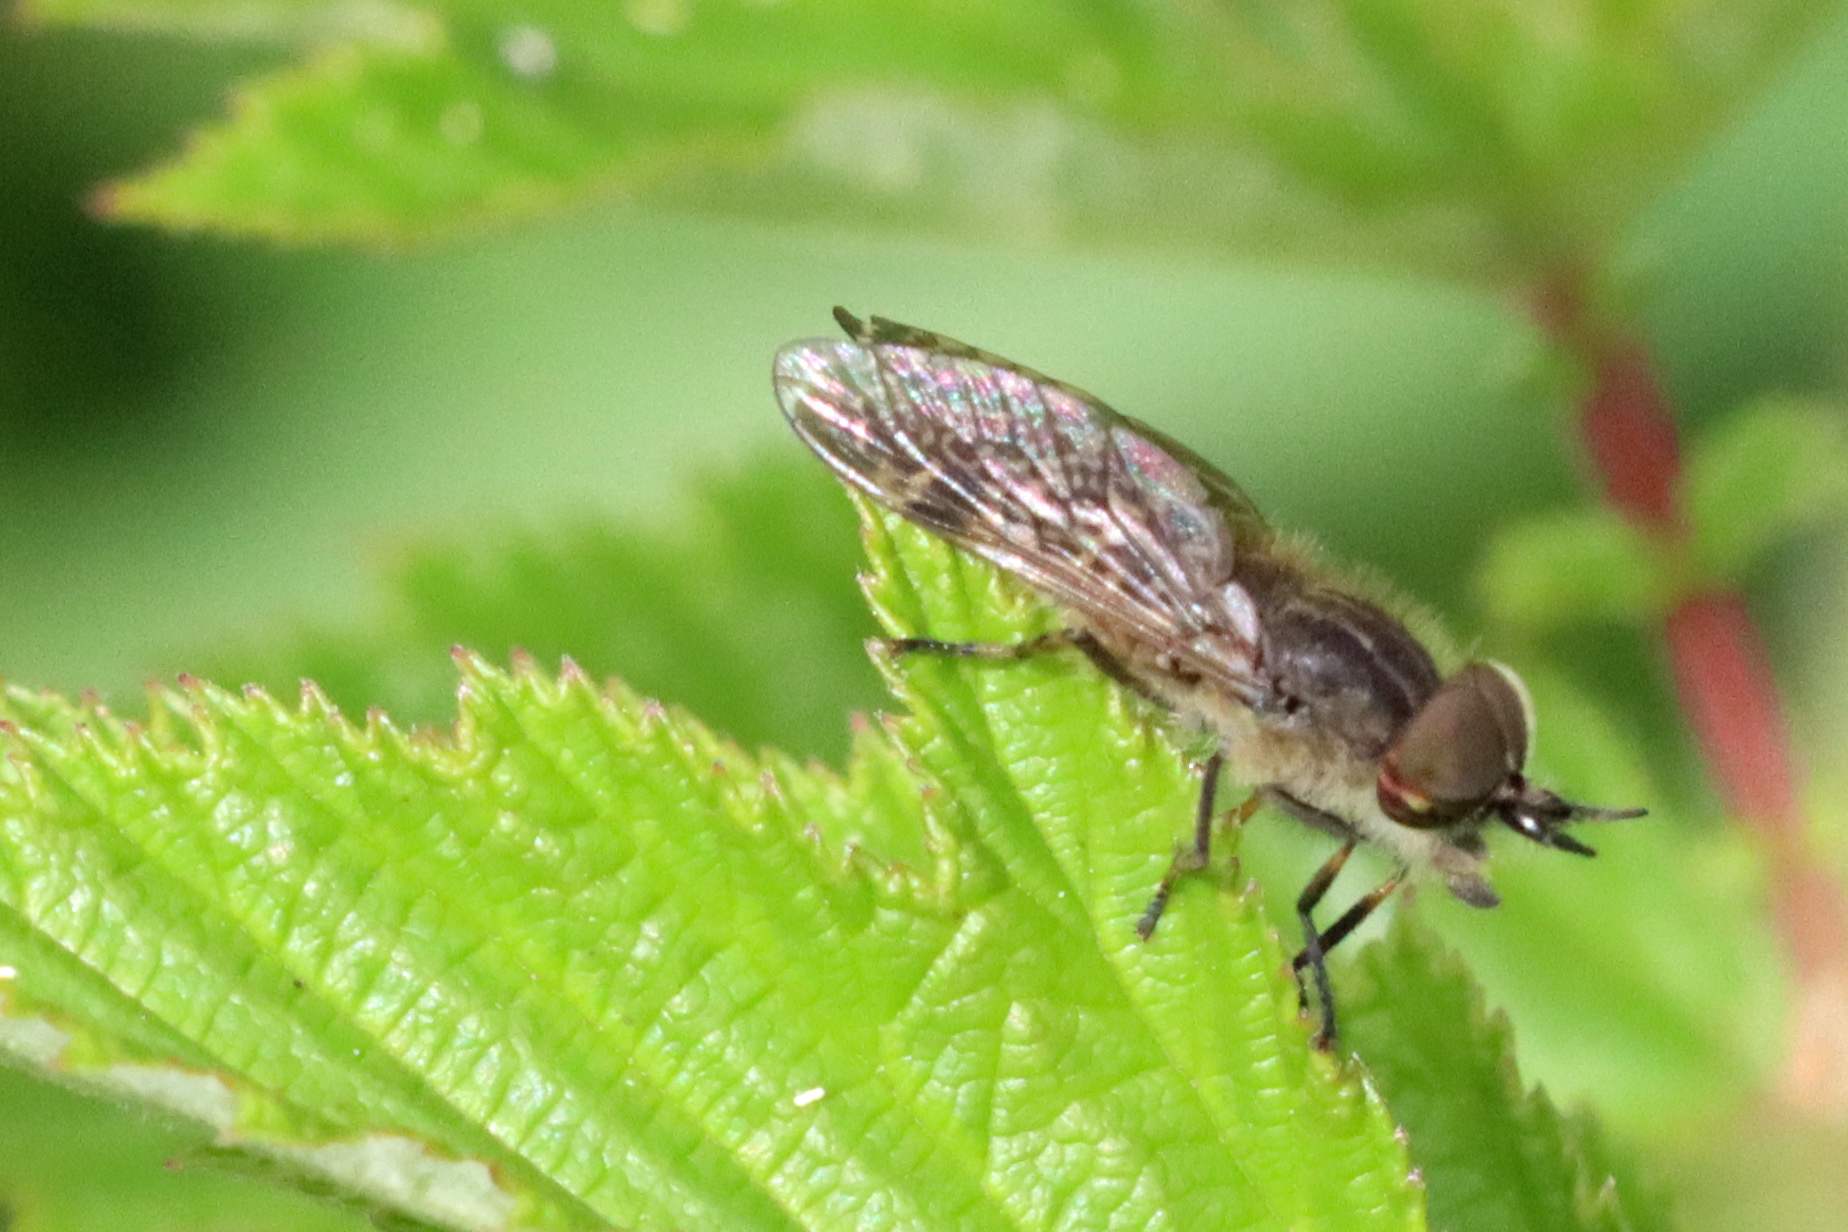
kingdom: Animalia
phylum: Arthropoda
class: Insecta
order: Diptera
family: Tabanidae
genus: Haematopota
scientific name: Haematopota crassicornis
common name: Black-horned cleg
